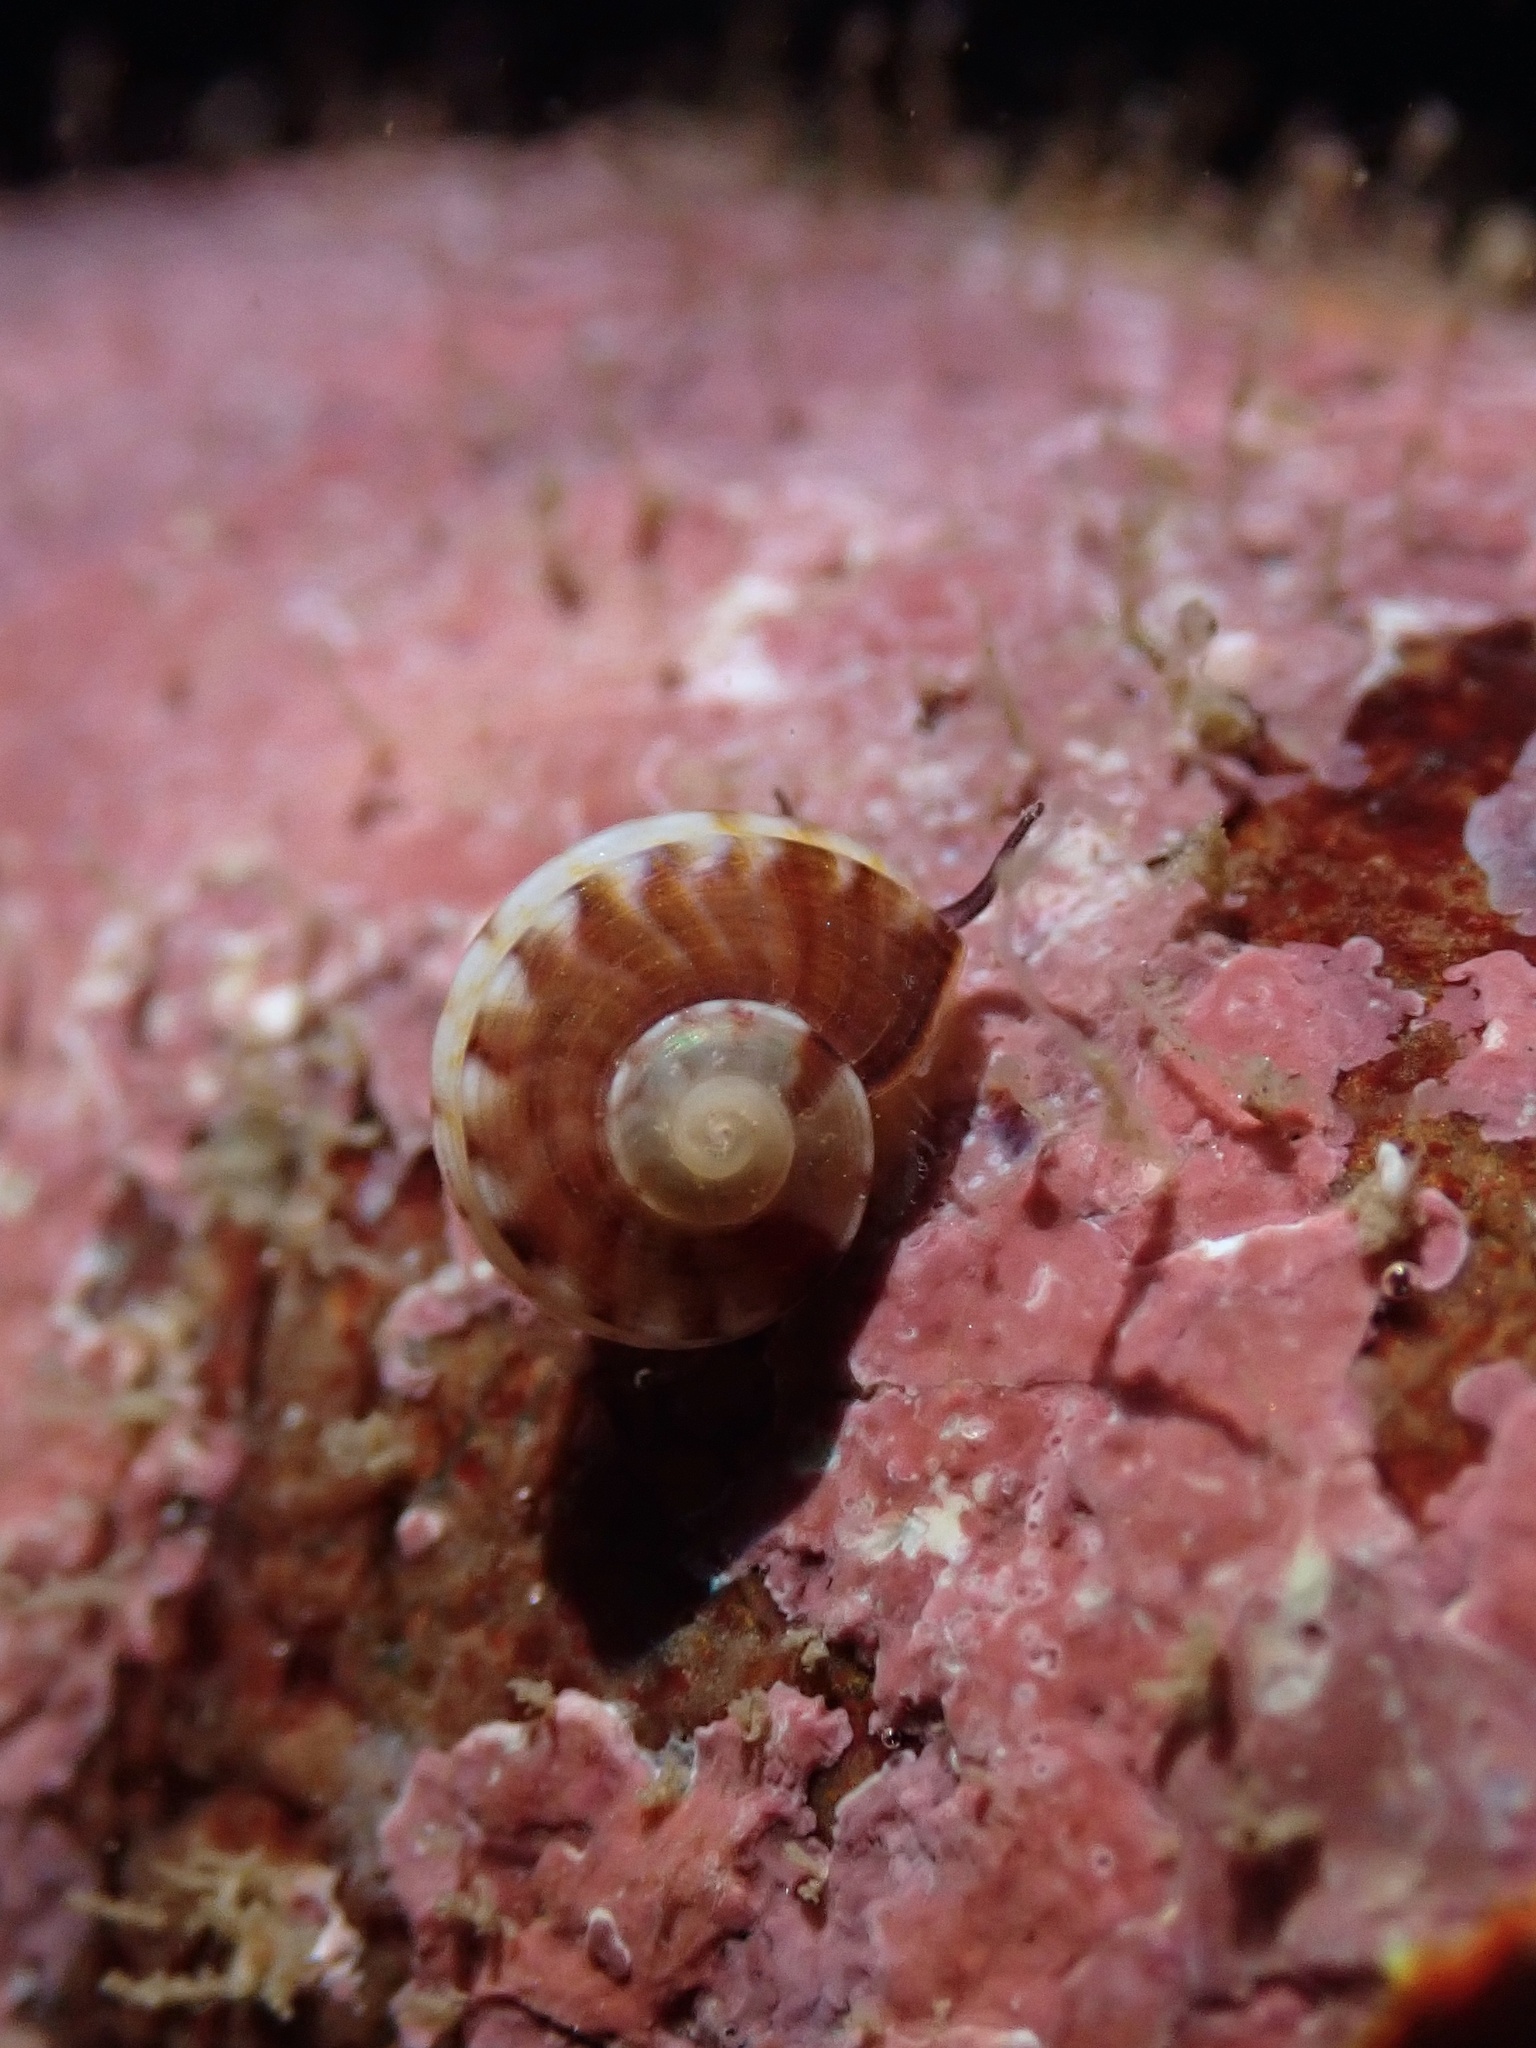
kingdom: Animalia
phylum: Mollusca
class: Gastropoda
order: Trochida
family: Tegulidae
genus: Norrisia
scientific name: Norrisia norrisii
